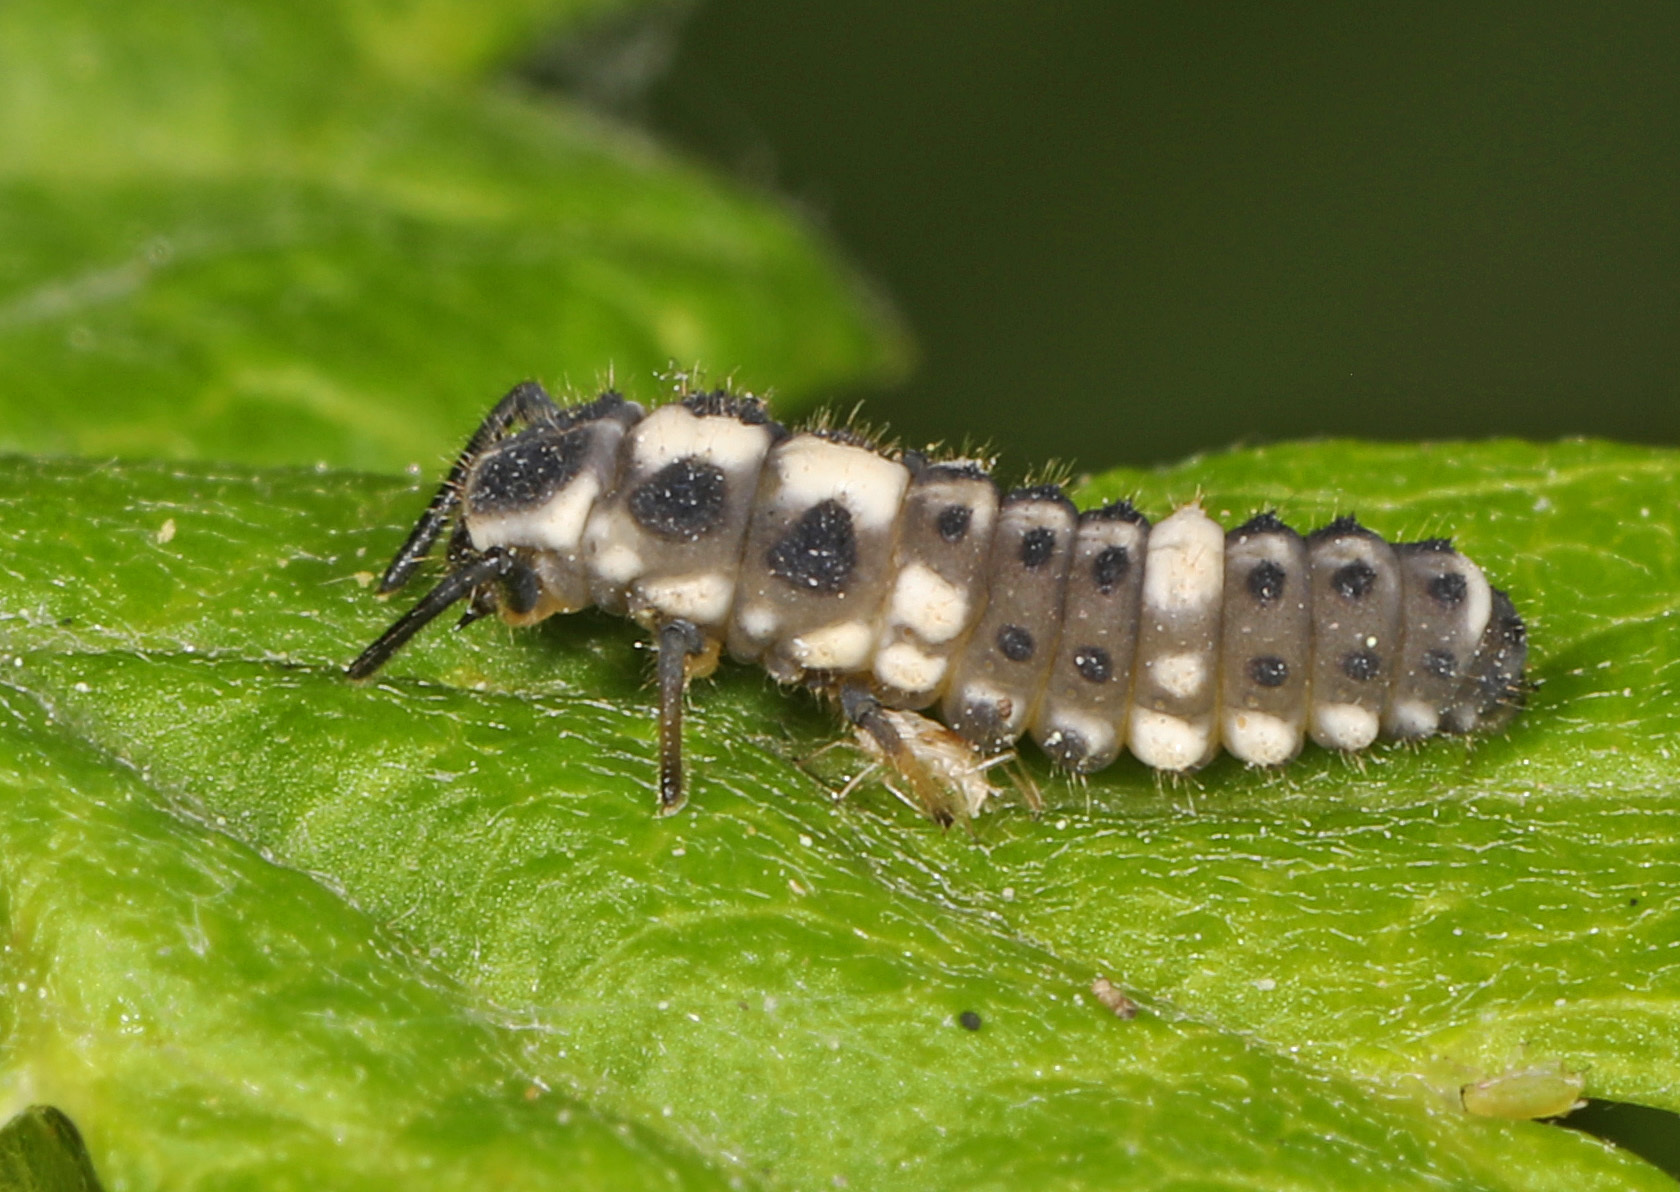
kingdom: Animalia
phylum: Arthropoda
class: Insecta
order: Coleoptera
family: Coccinellidae
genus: Propylaea
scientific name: Propylaea quatuordecimpunctata
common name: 14-spotted ladybird beetle
